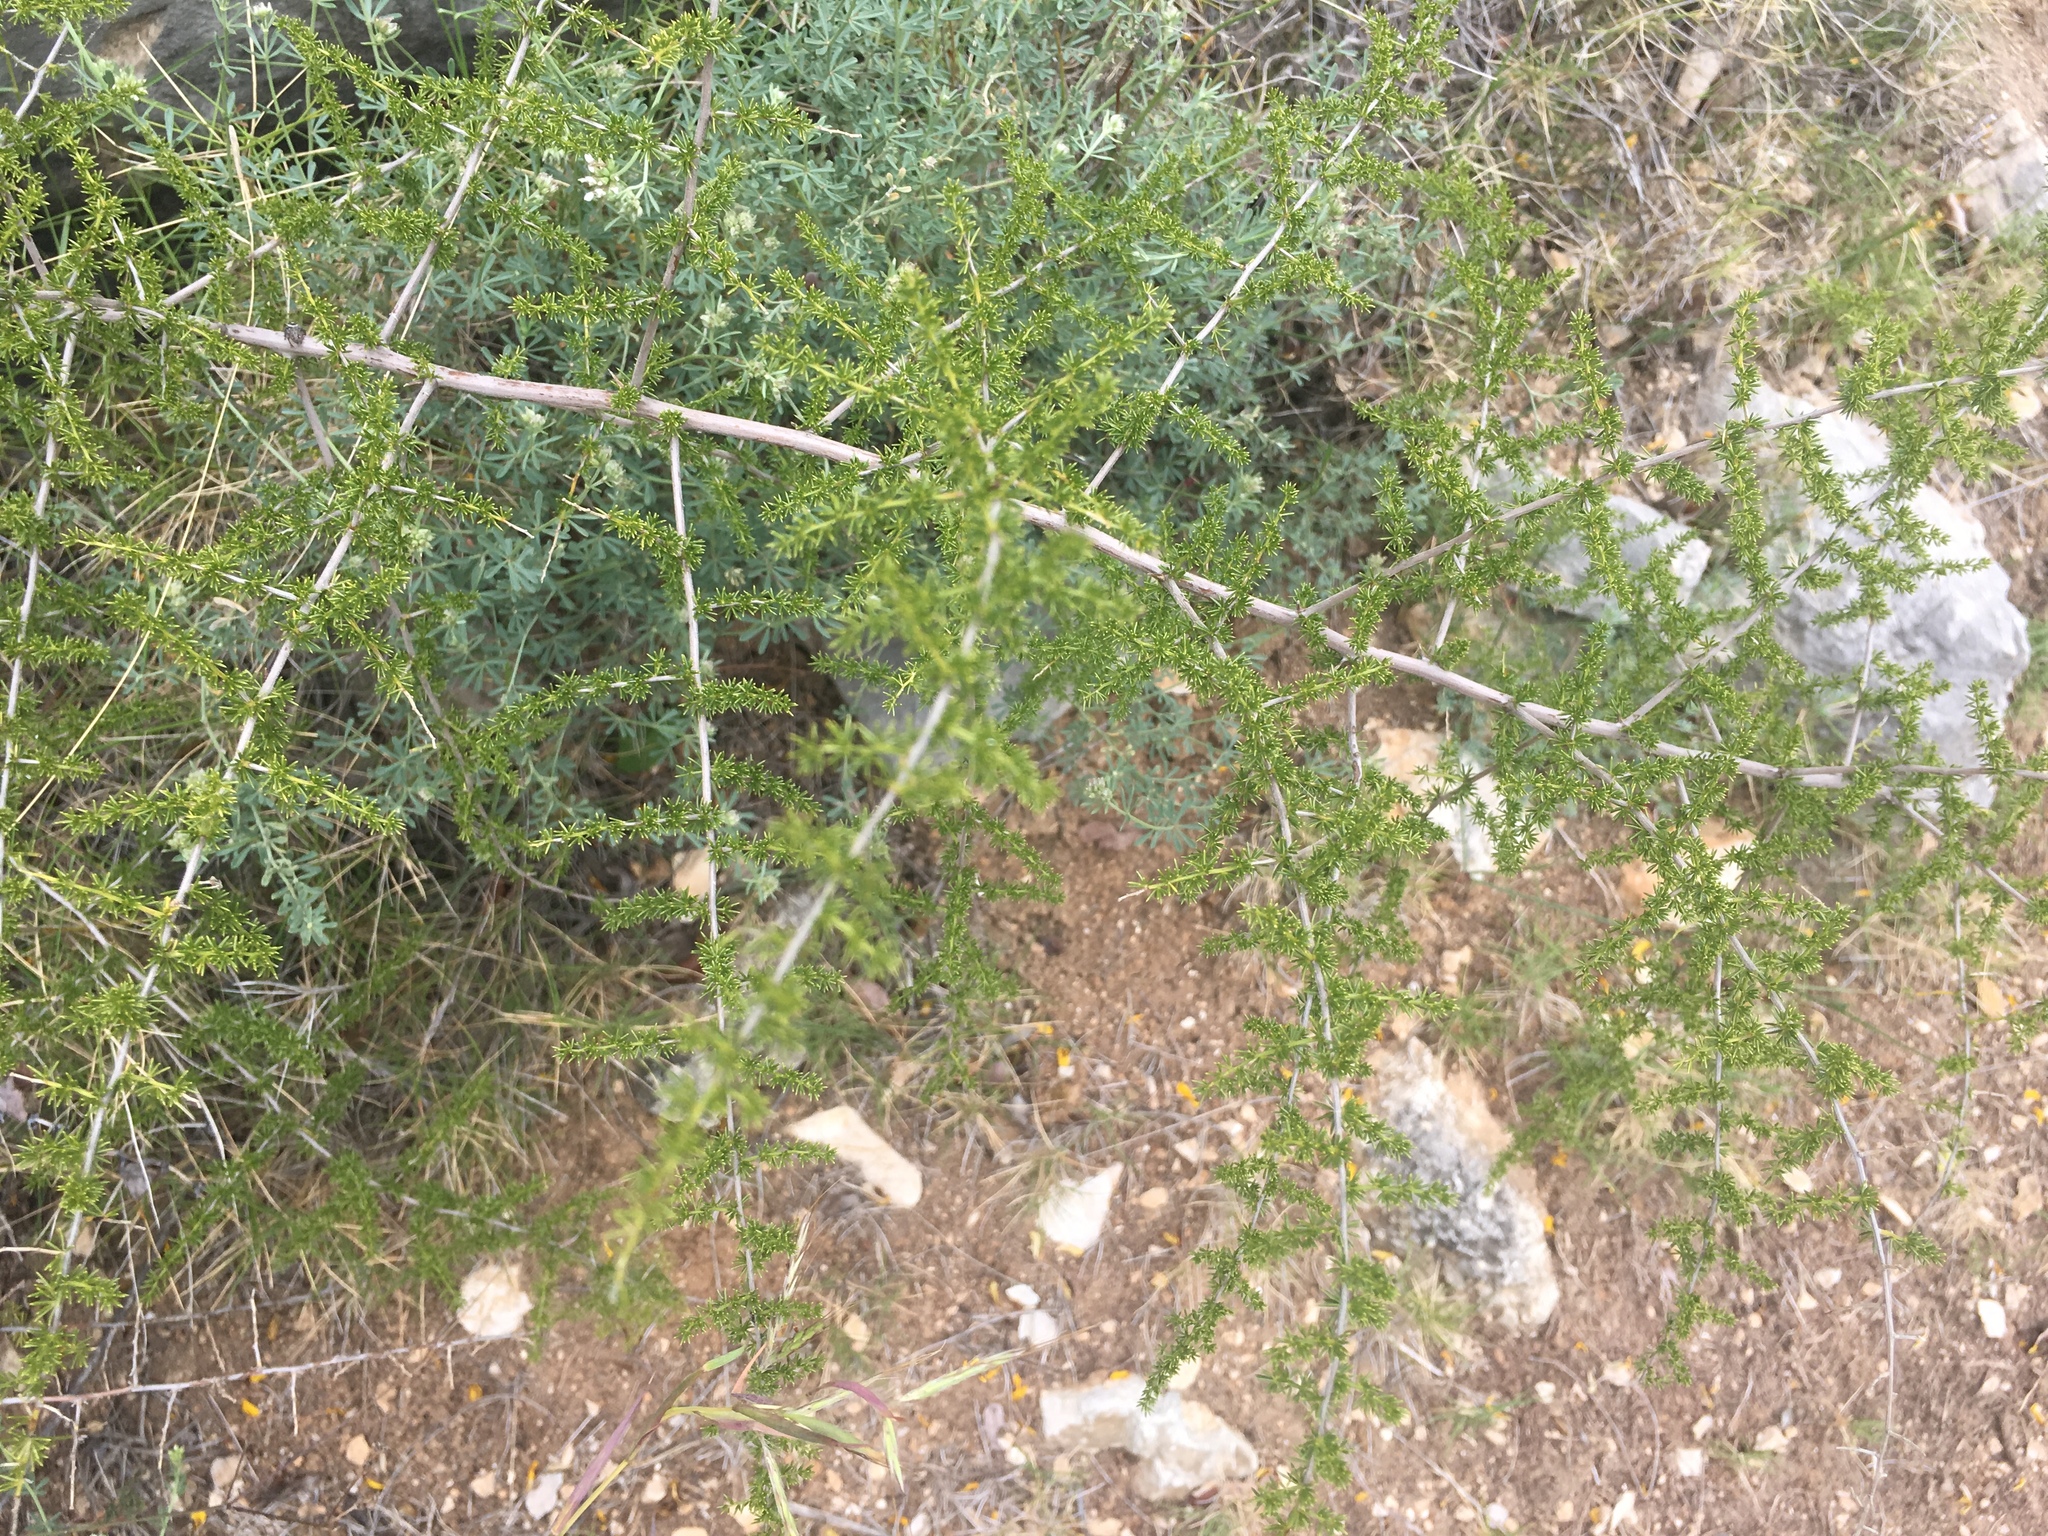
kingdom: Plantae
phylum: Tracheophyta
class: Liliopsida
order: Asparagales
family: Asparagaceae
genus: Asparagus
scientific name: Asparagus acutifolius
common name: Wild asparagus
